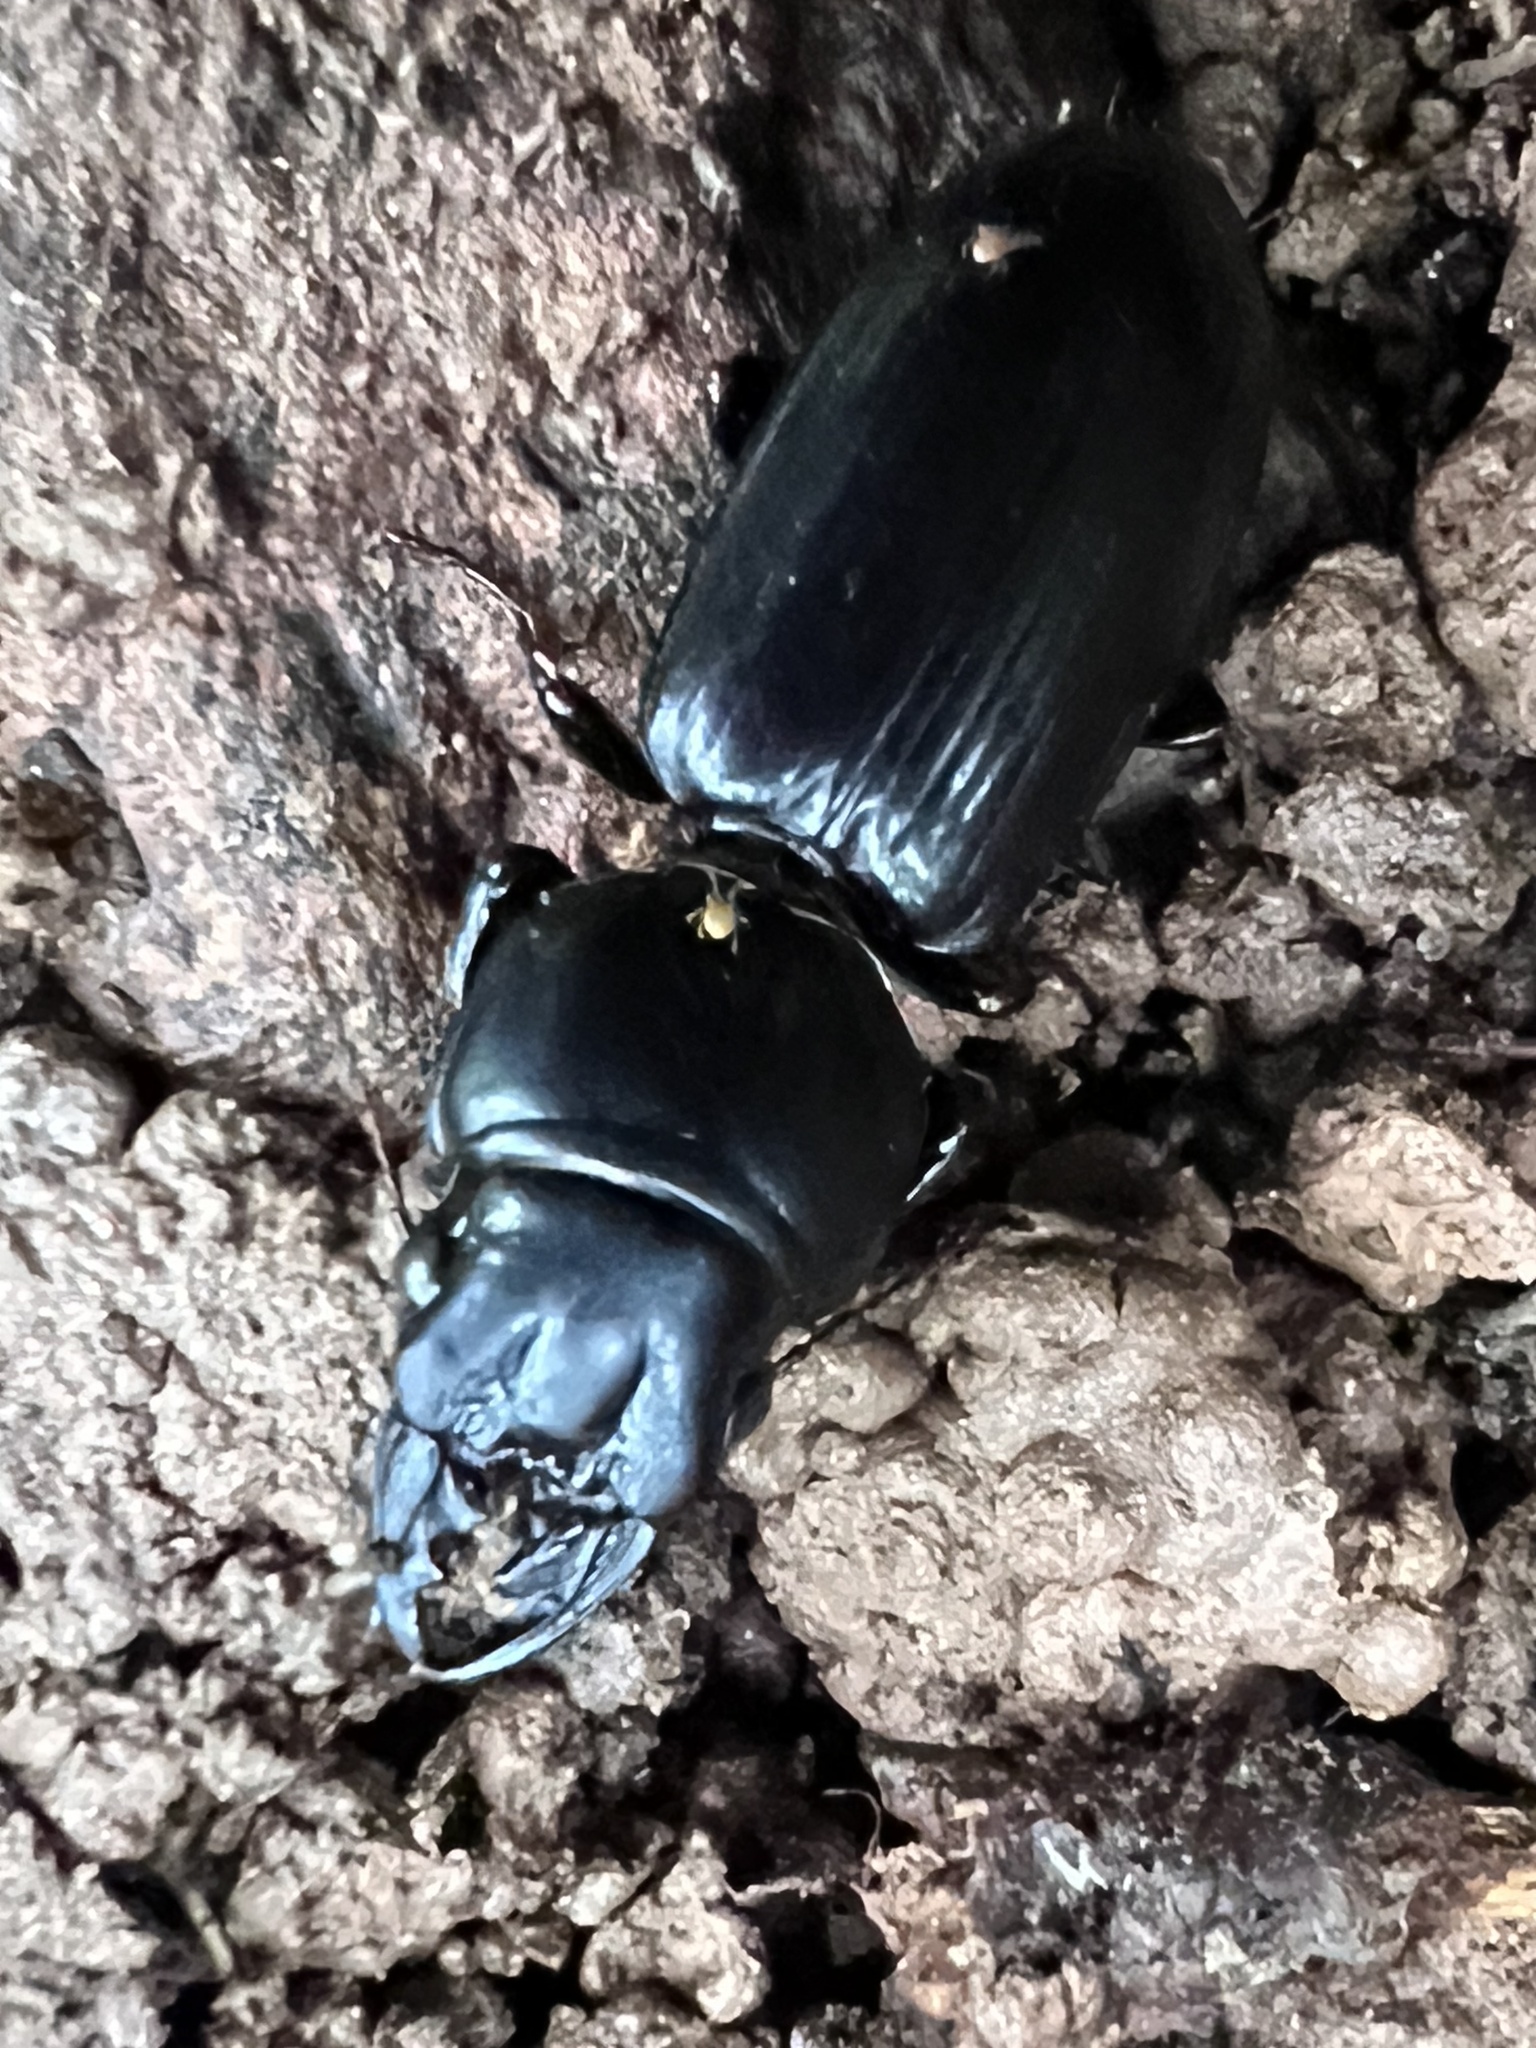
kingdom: Animalia
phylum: Arthropoda
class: Insecta
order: Coleoptera
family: Carabidae
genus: Scarites
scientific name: Scarites subterraneus
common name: Big-headed ground beetle
